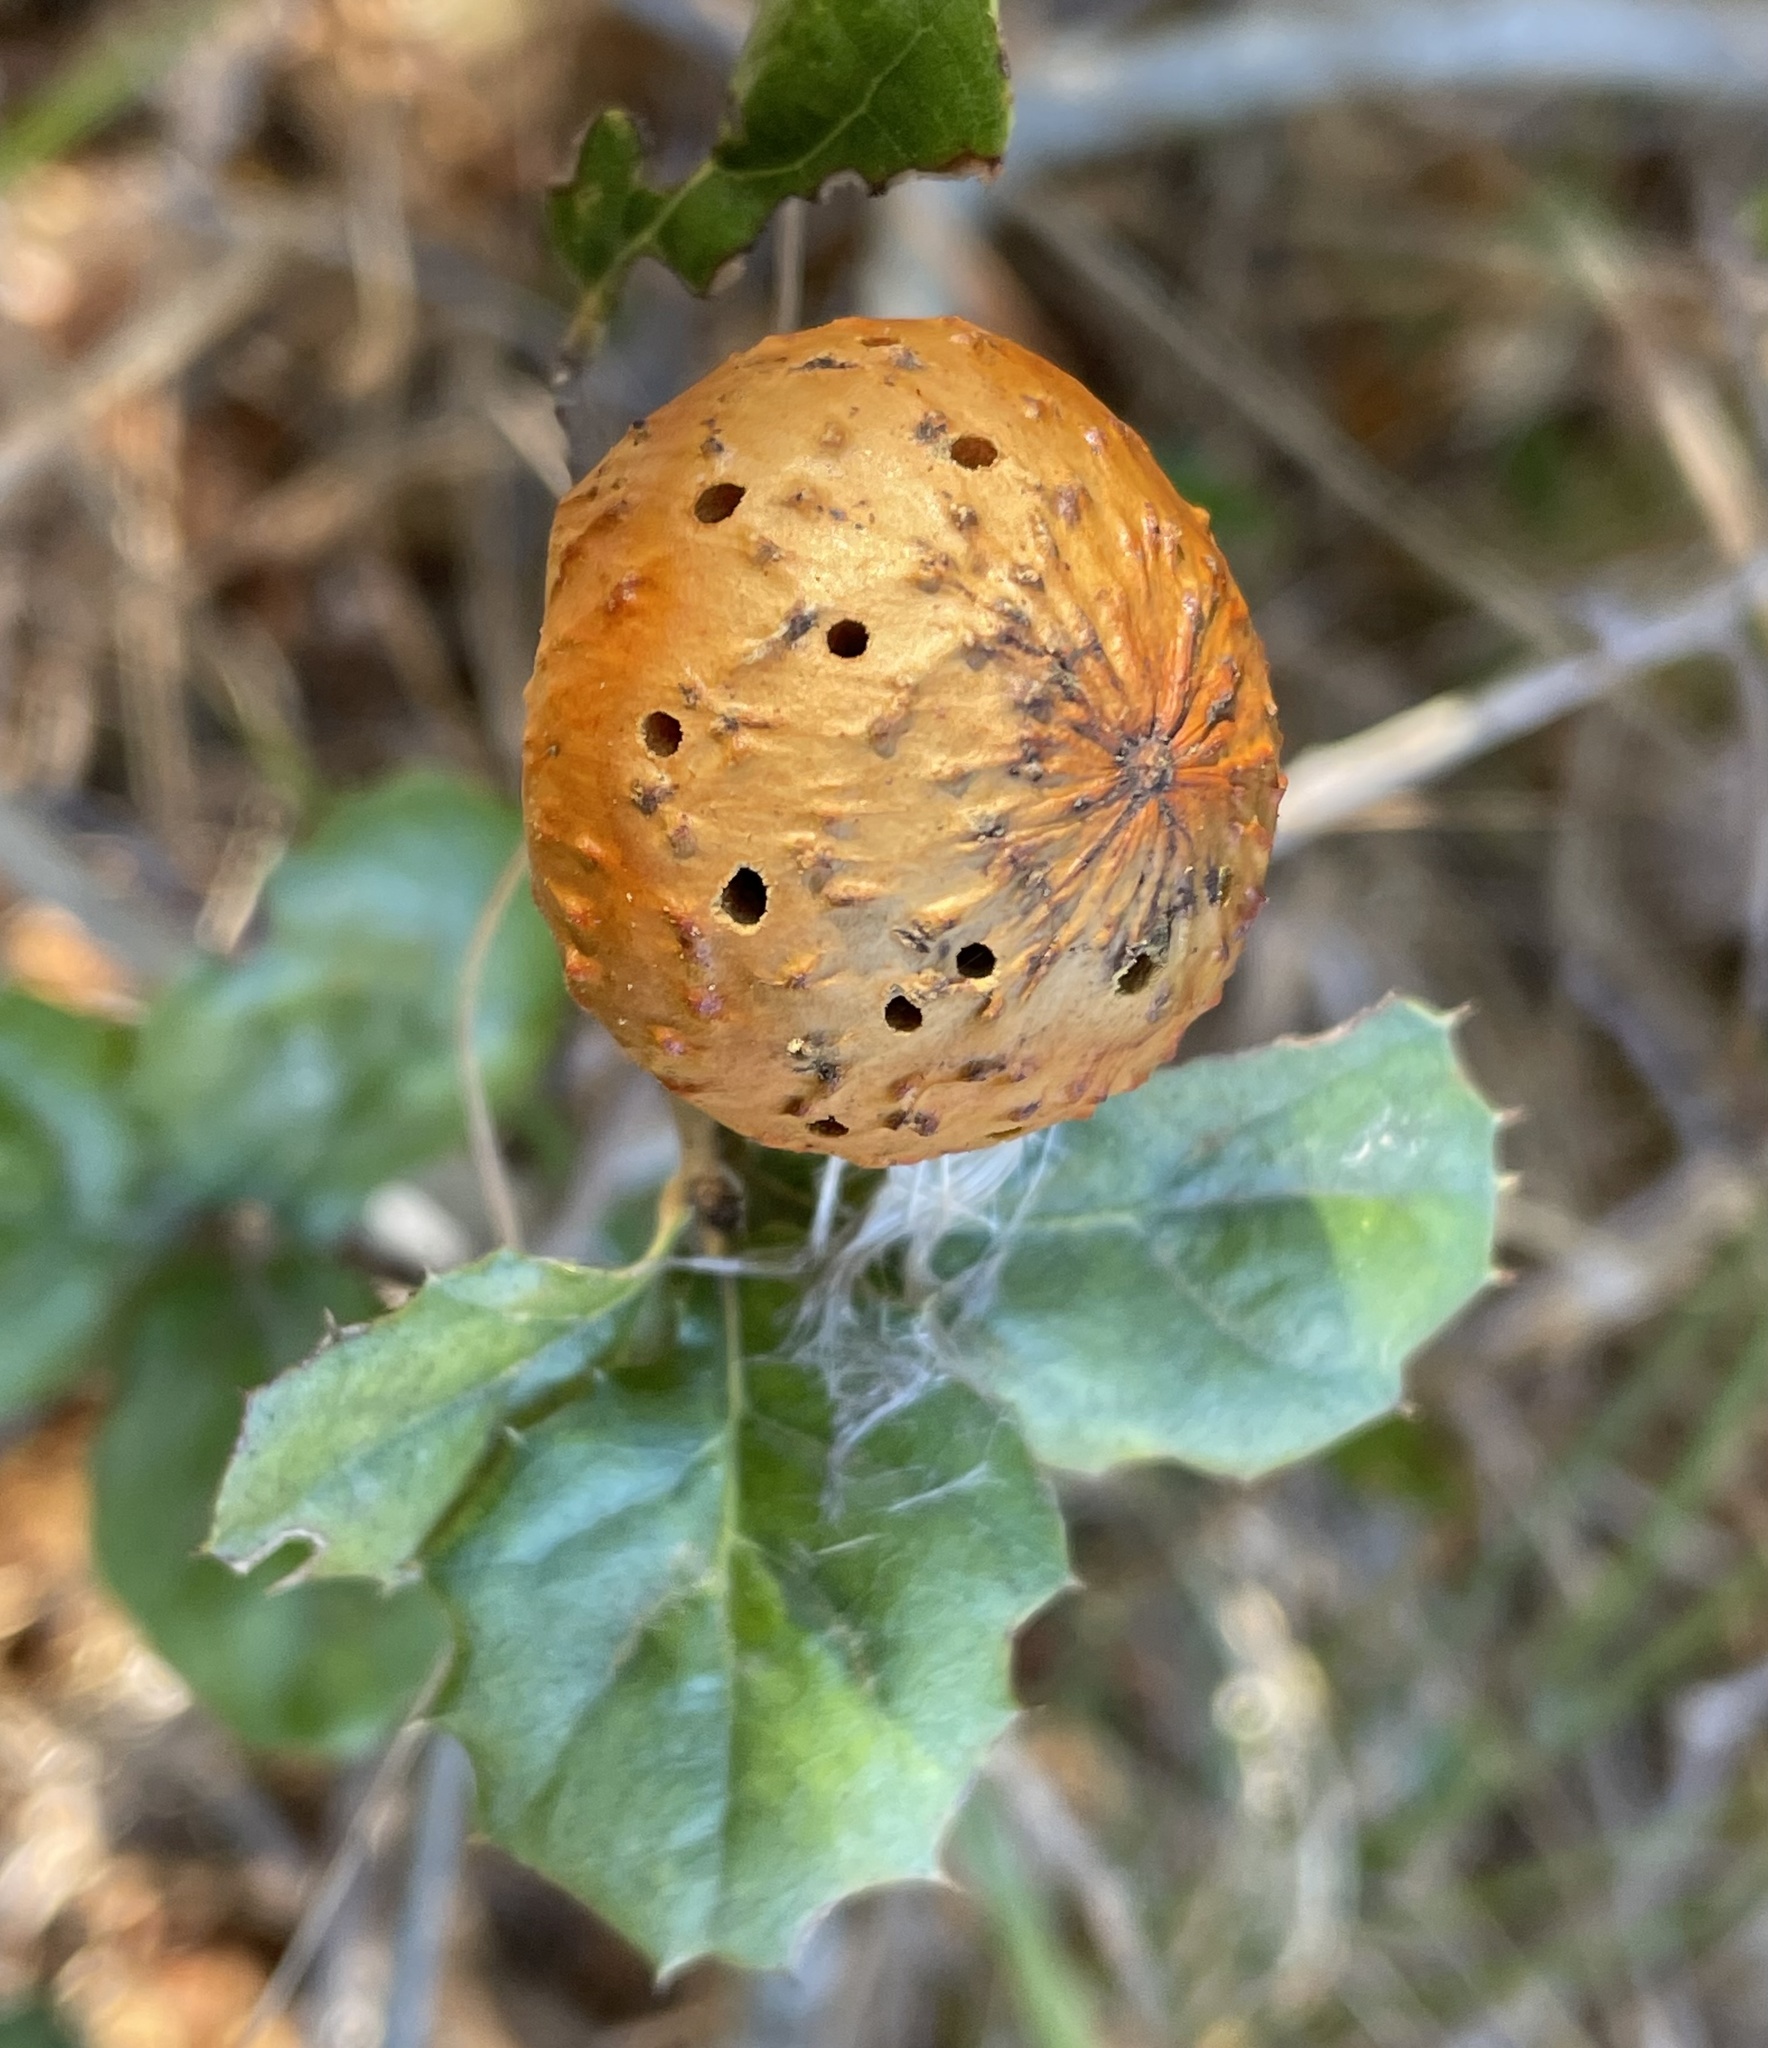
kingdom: Animalia
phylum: Arthropoda
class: Insecta
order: Hymenoptera
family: Cynipidae
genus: Amphibolips
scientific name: Amphibolips quercuspomiformis
